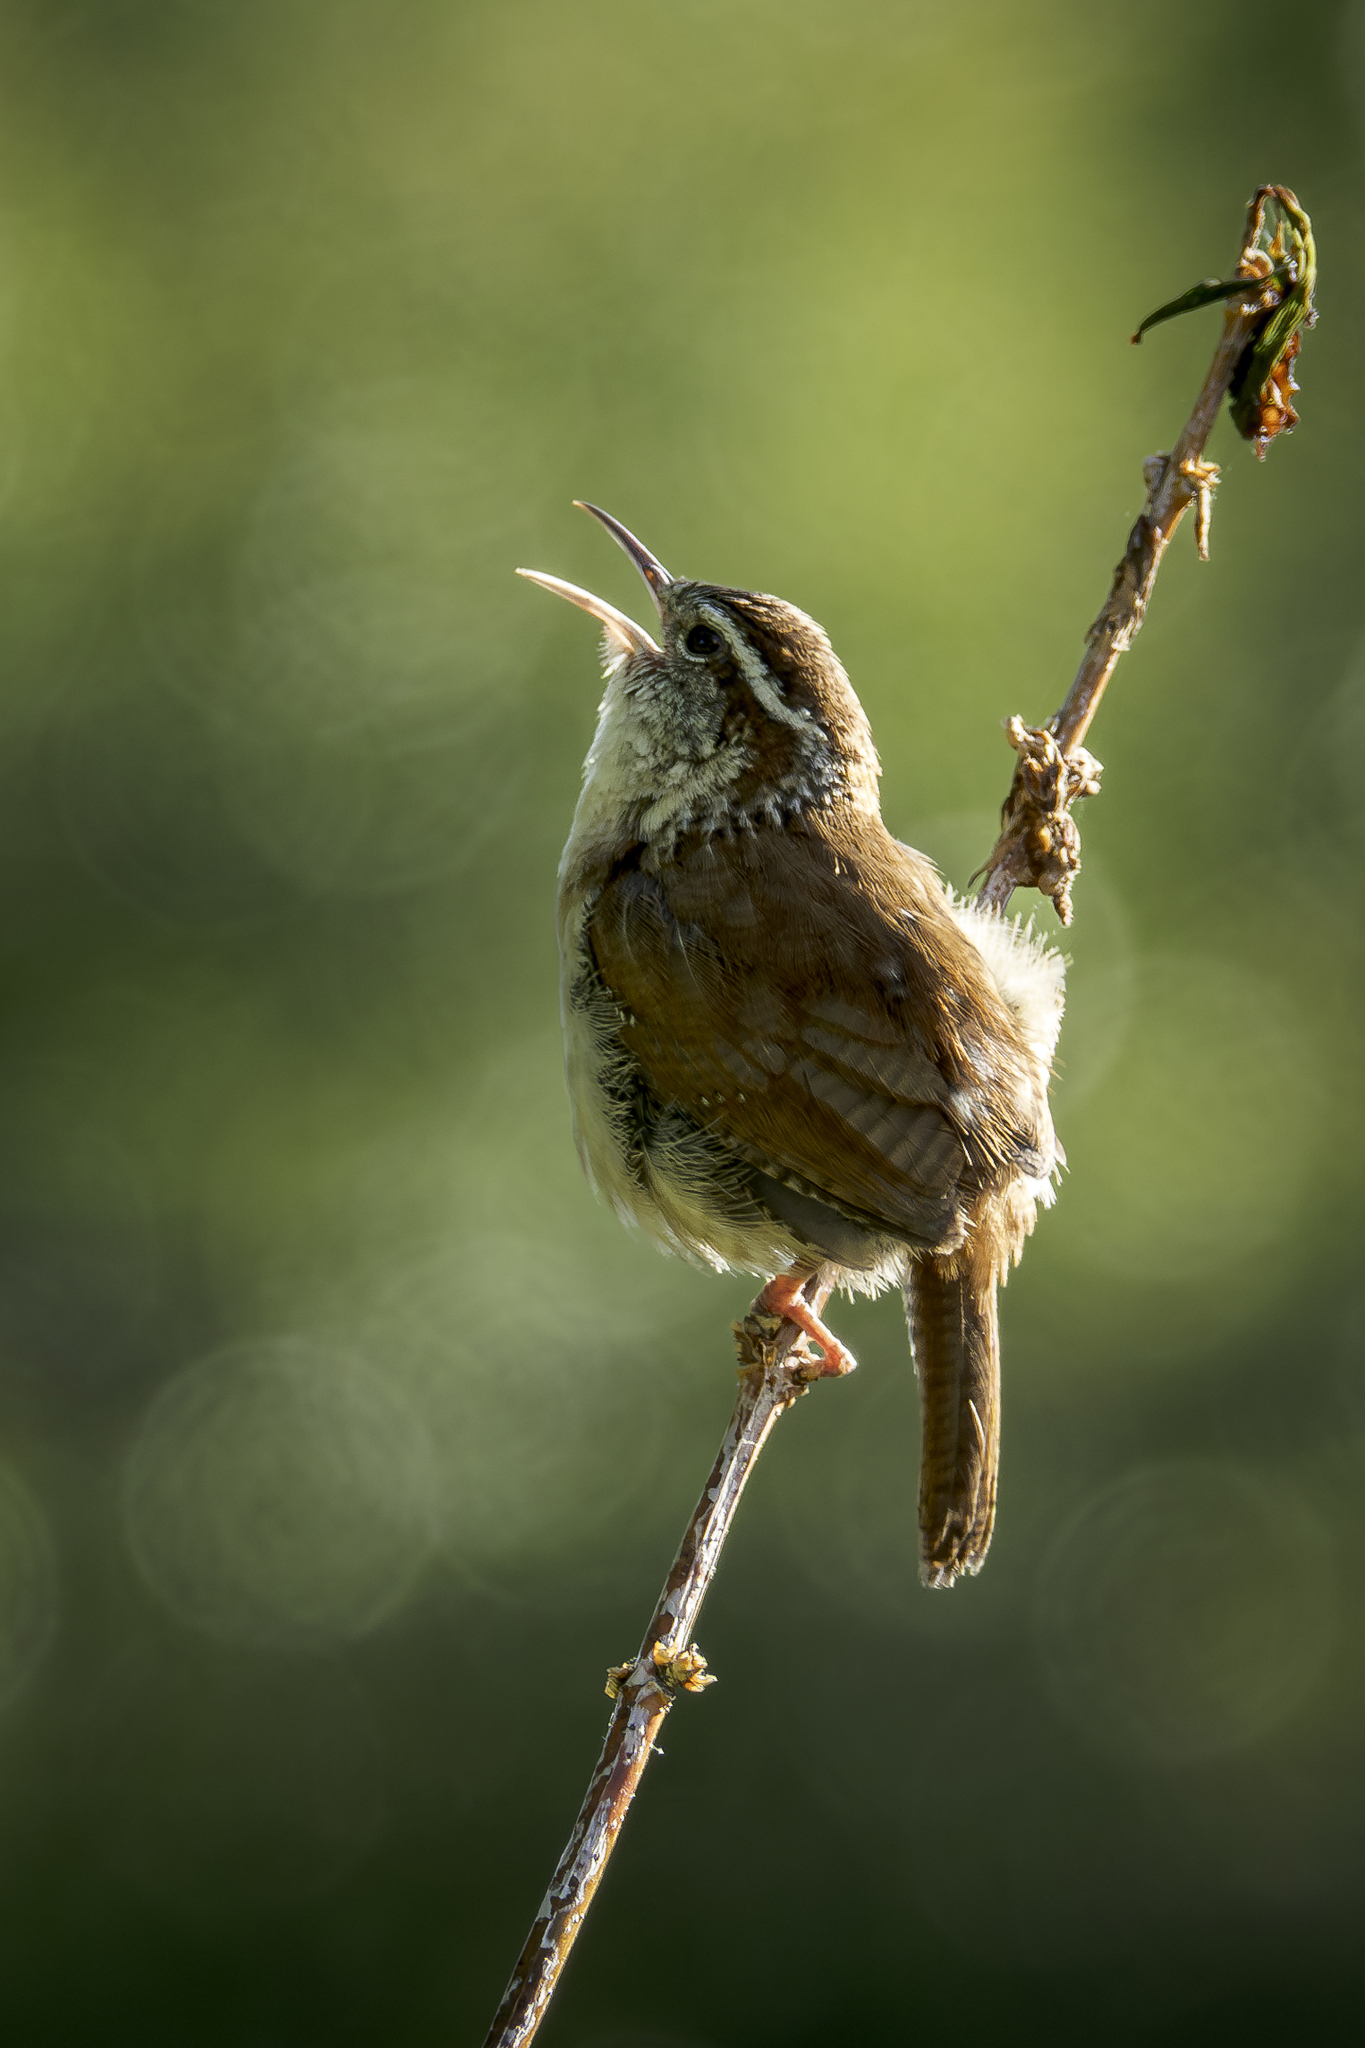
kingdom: Animalia
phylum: Chordata
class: Aves
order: Passeriformes
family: Troglodytidae
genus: Thryothorus
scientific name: Thryothorus ludovicianus
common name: Carolina wren
